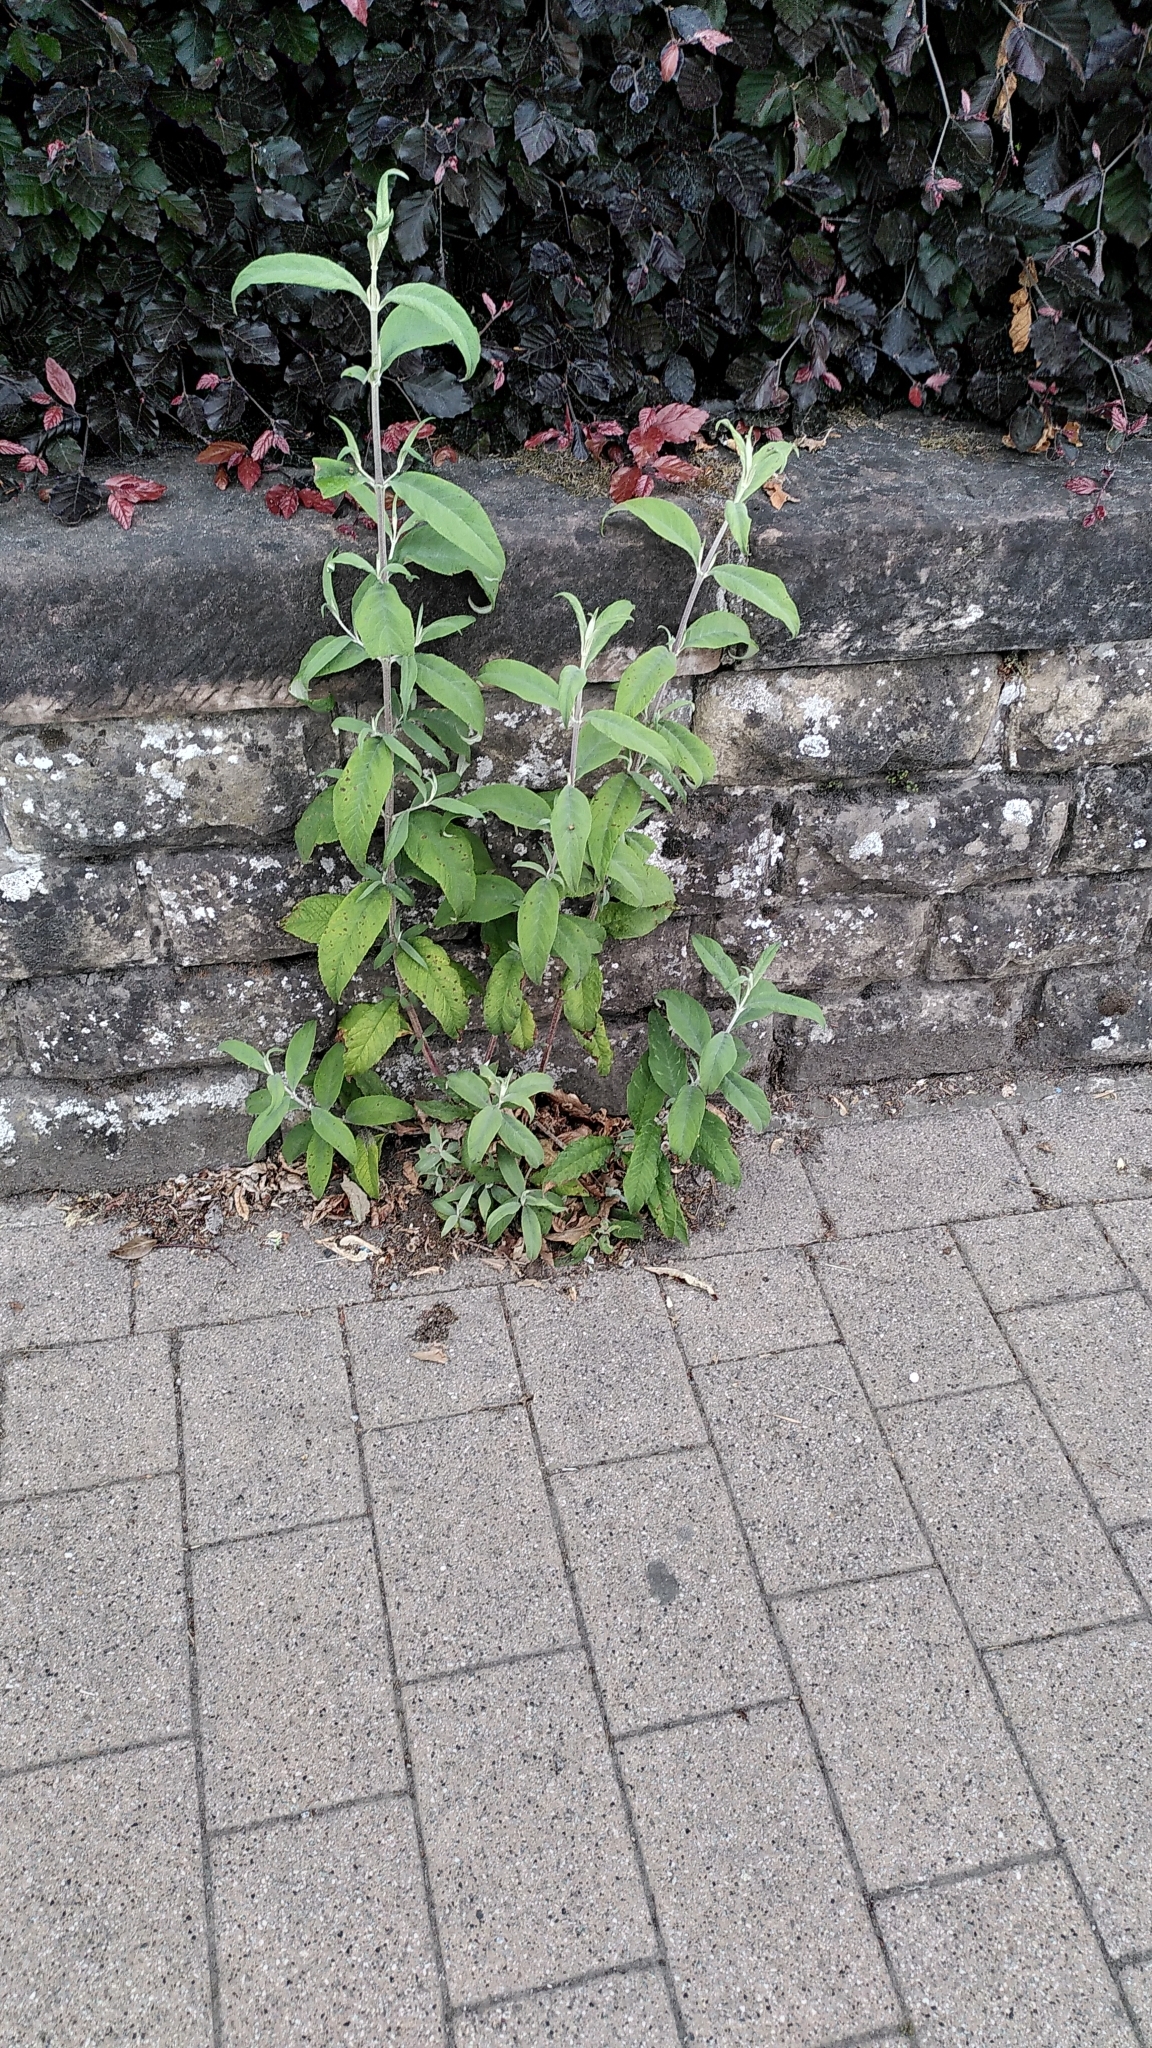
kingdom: Plantae
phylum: Tracheophyta
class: Magnoliopsida
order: Lamiales
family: Scrophulariaceae
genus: Buddleja
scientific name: Buddleja davidii
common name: Butterfly-bush
